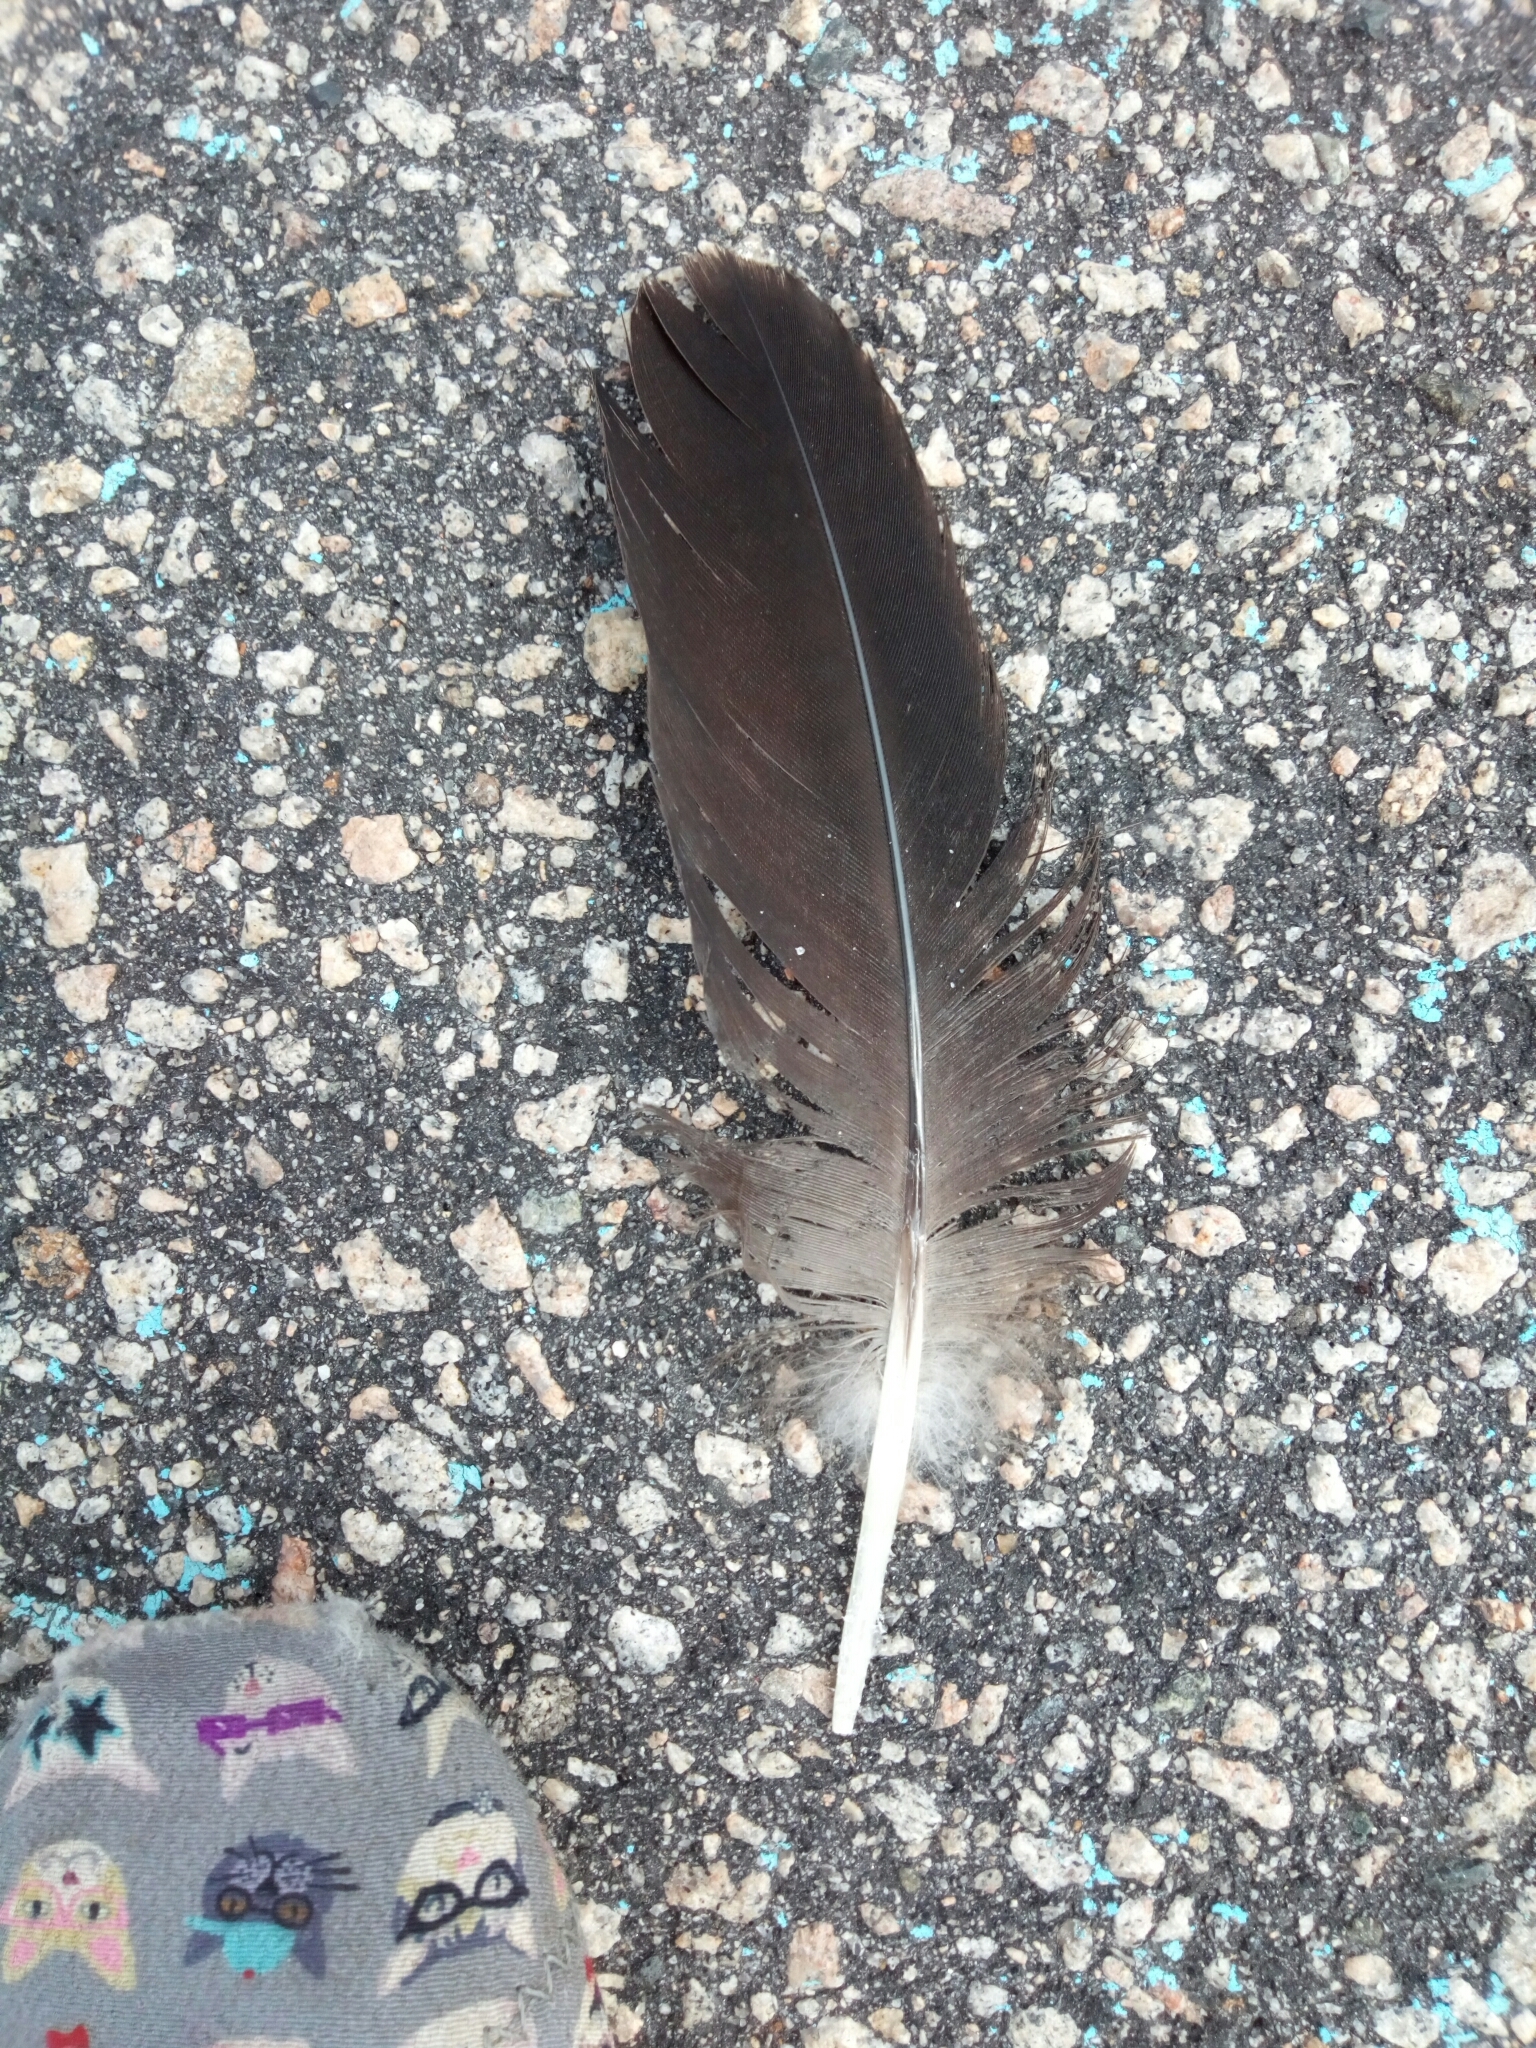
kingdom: Animalia
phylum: Chordata
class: Aves
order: Anseriformes
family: Anatidae
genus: Branta
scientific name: Branta canadensis
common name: Canada goose
